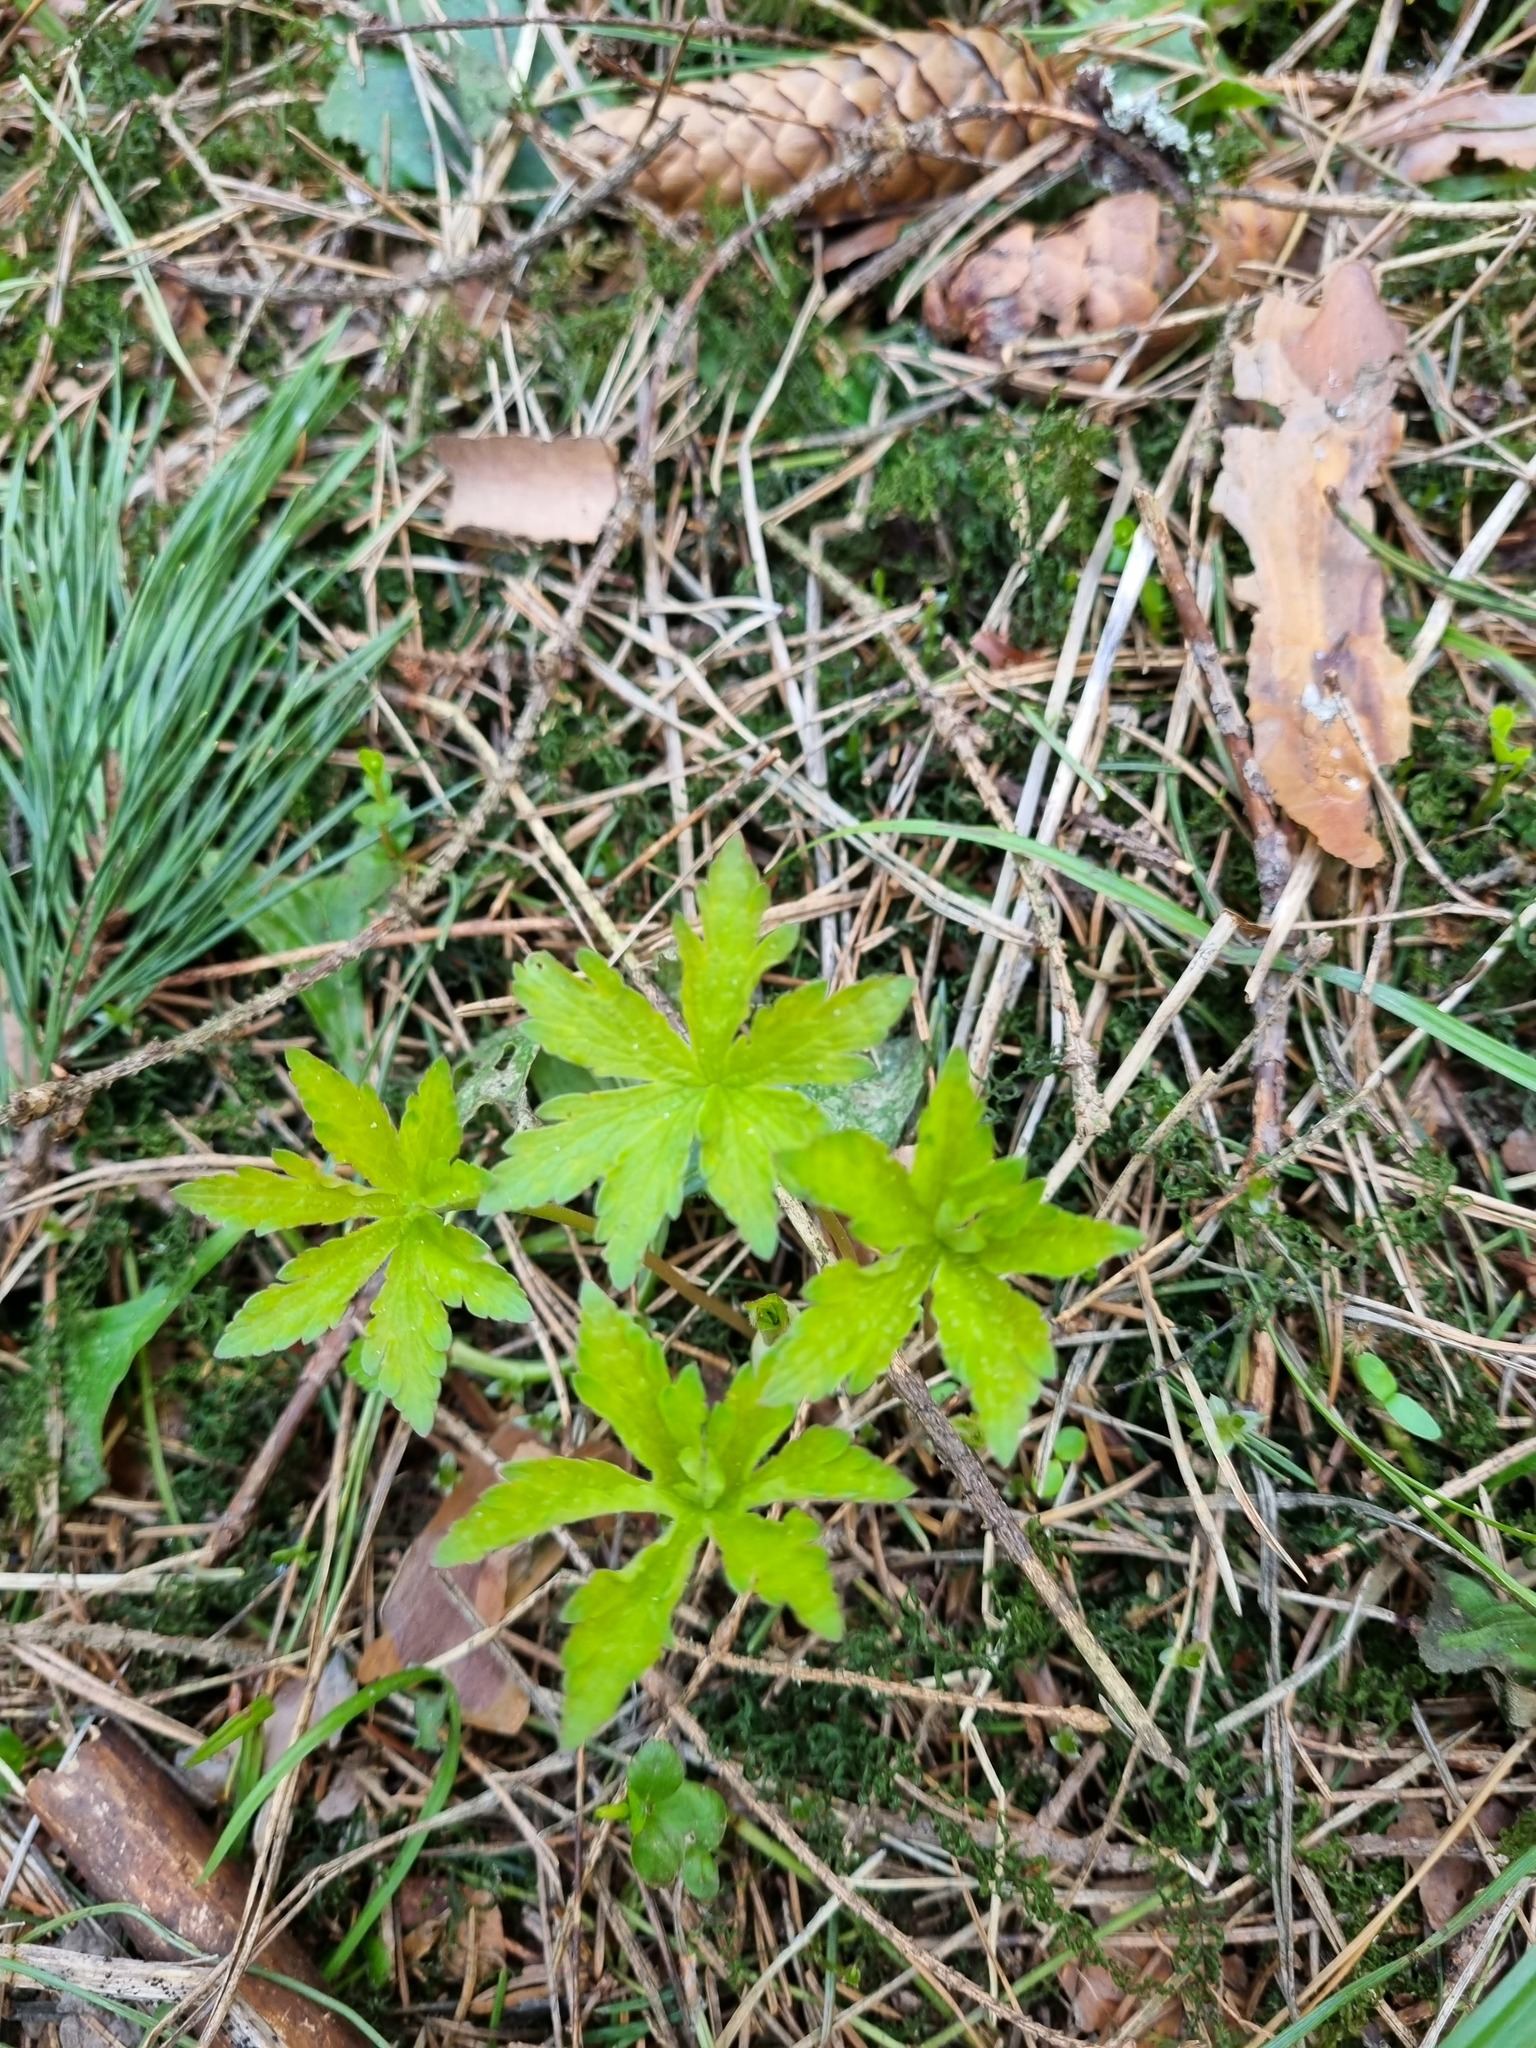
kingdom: Plantae
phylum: Tracheophyta
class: Magnoliopsida
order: Geraniales
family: Geraniaceae
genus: Geranium
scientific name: Geranium sylvaticum
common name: Wood crane's-bill
